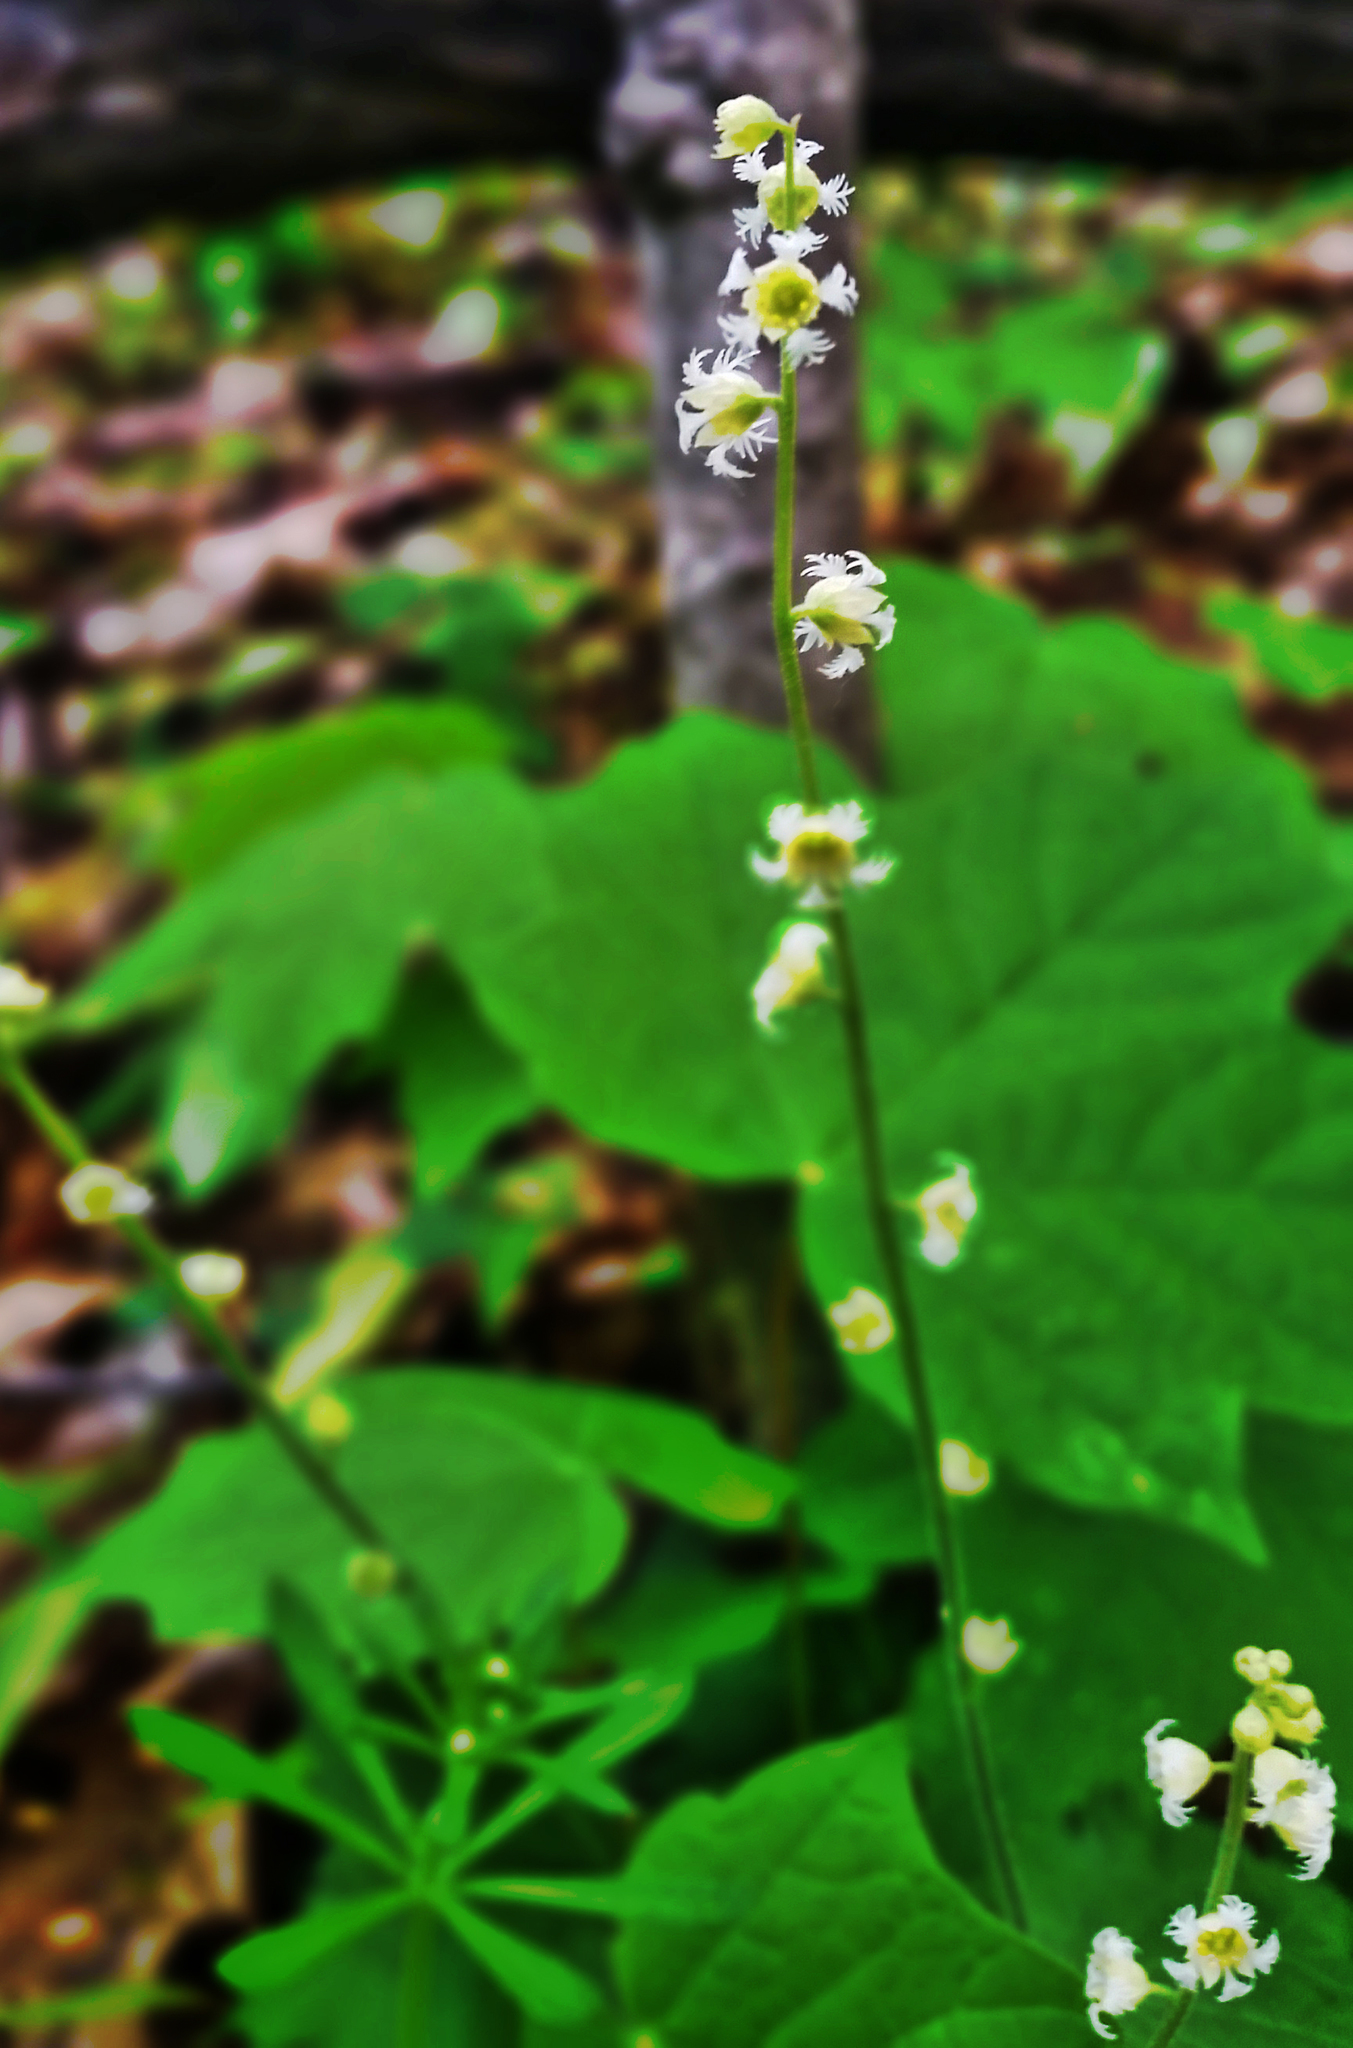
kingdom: Plantae
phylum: Tracheophyta
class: Magnoliopsida
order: Saxifragales
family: Saxifragaceae
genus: Mitella
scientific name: Mitella diphylla
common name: Coolwort
